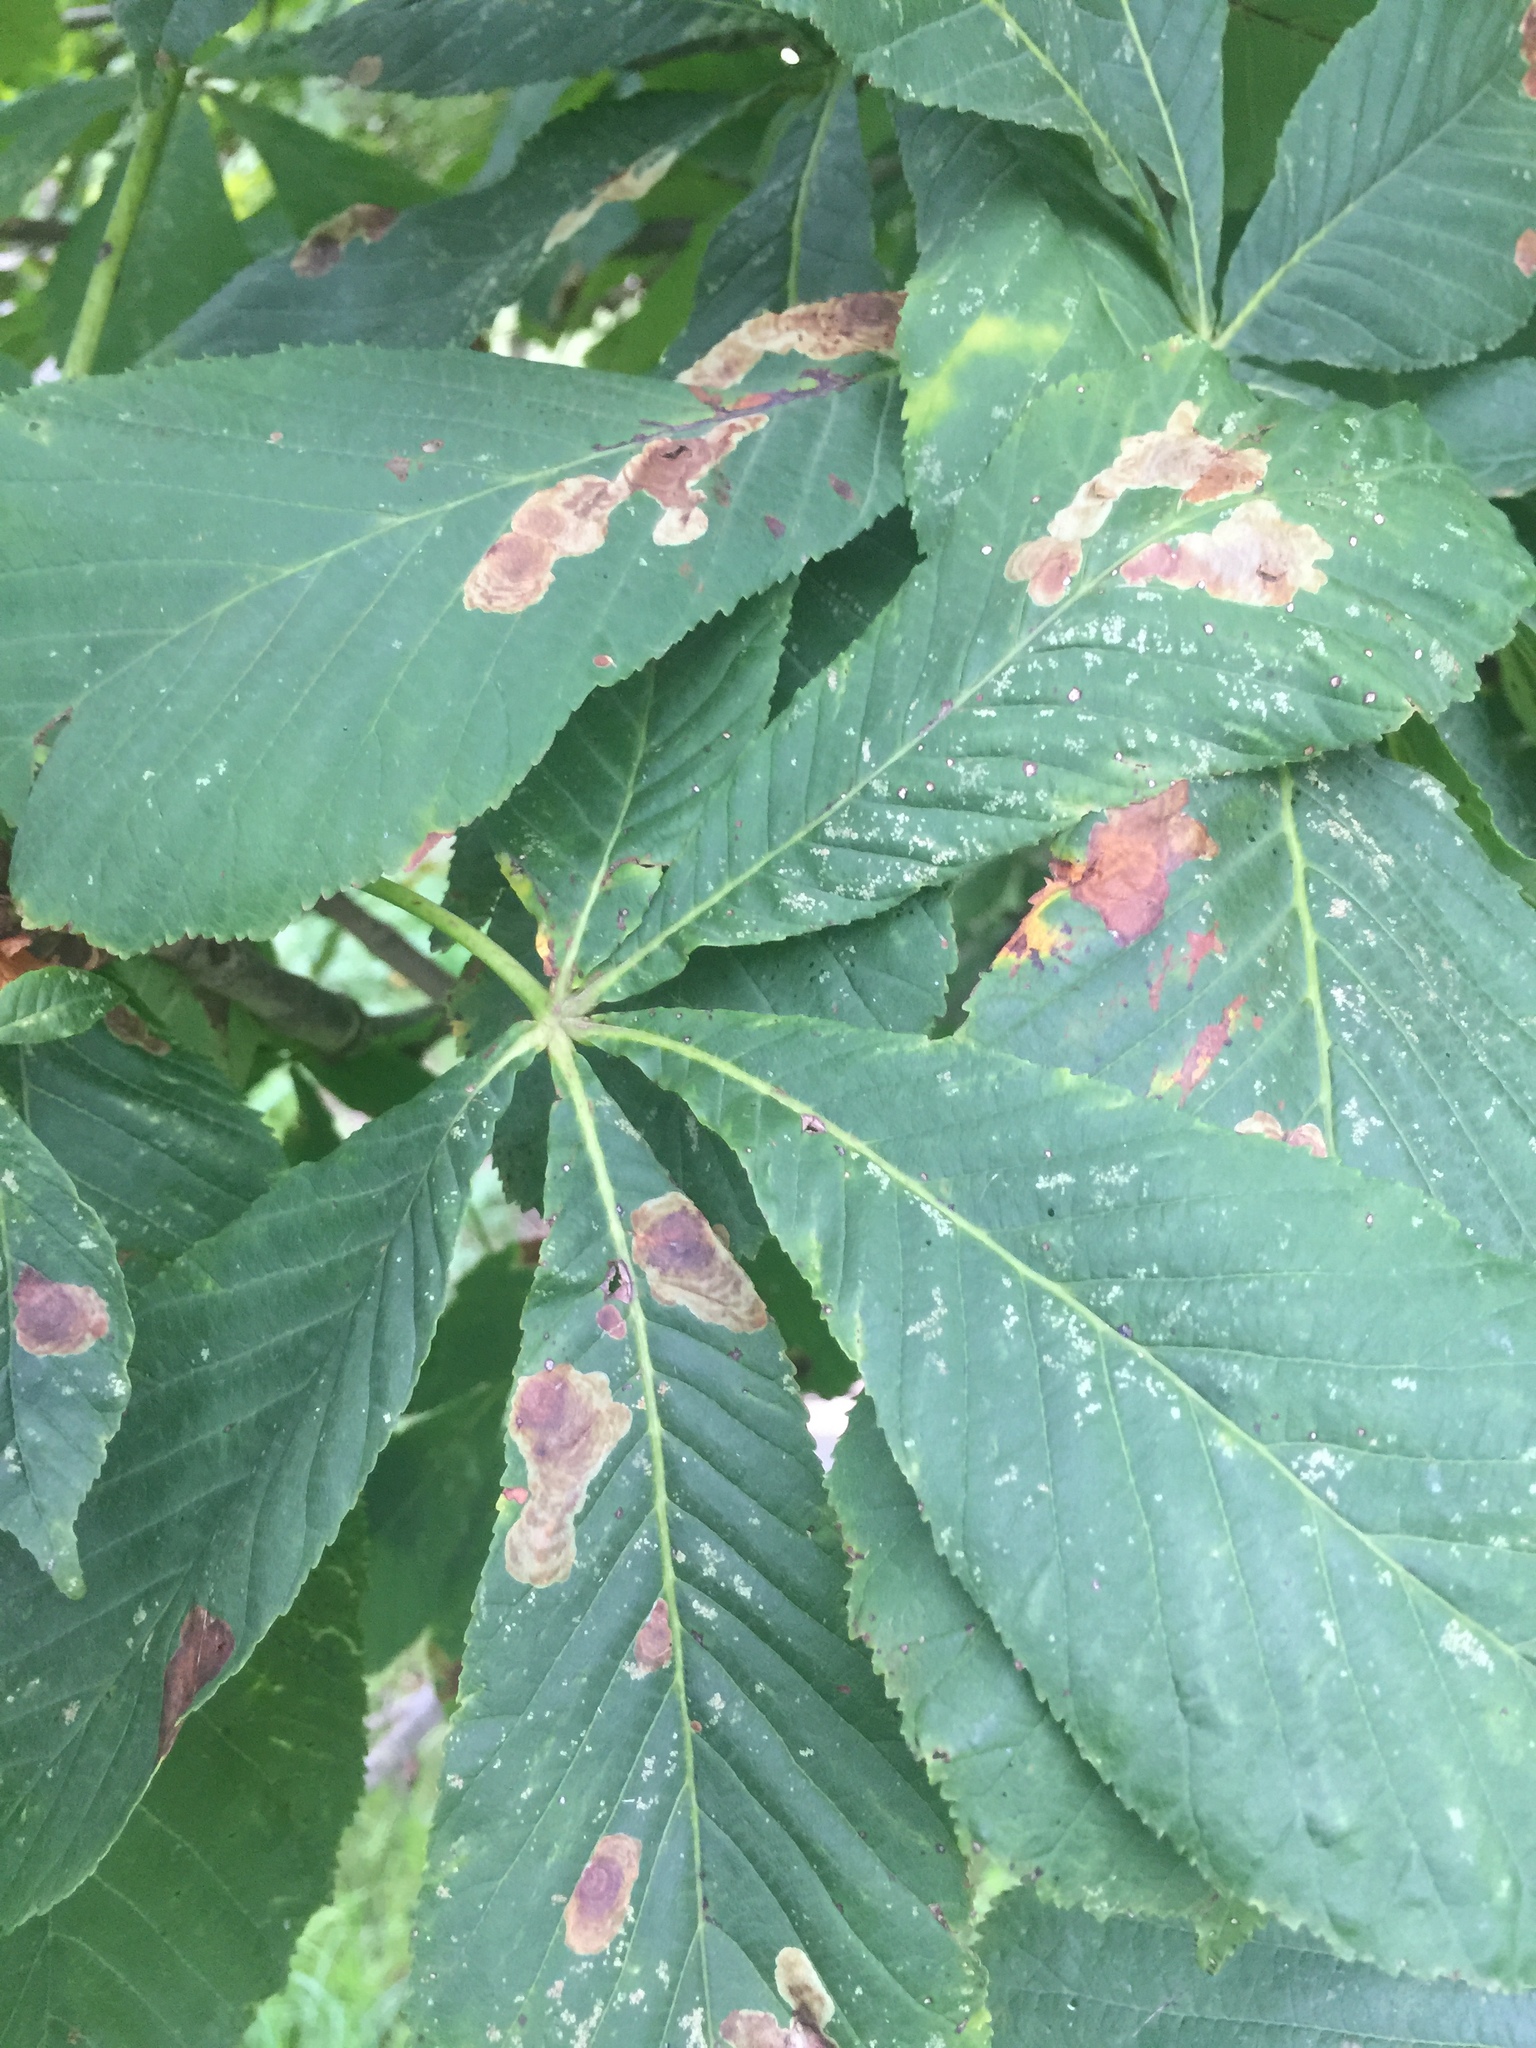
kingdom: Animalia
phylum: Arthropoda
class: Insecta
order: Lepidoptera
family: Gracillariidae
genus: Cameraria
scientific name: Cameraria ohridella
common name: Horse-chestnut leaf-miner
